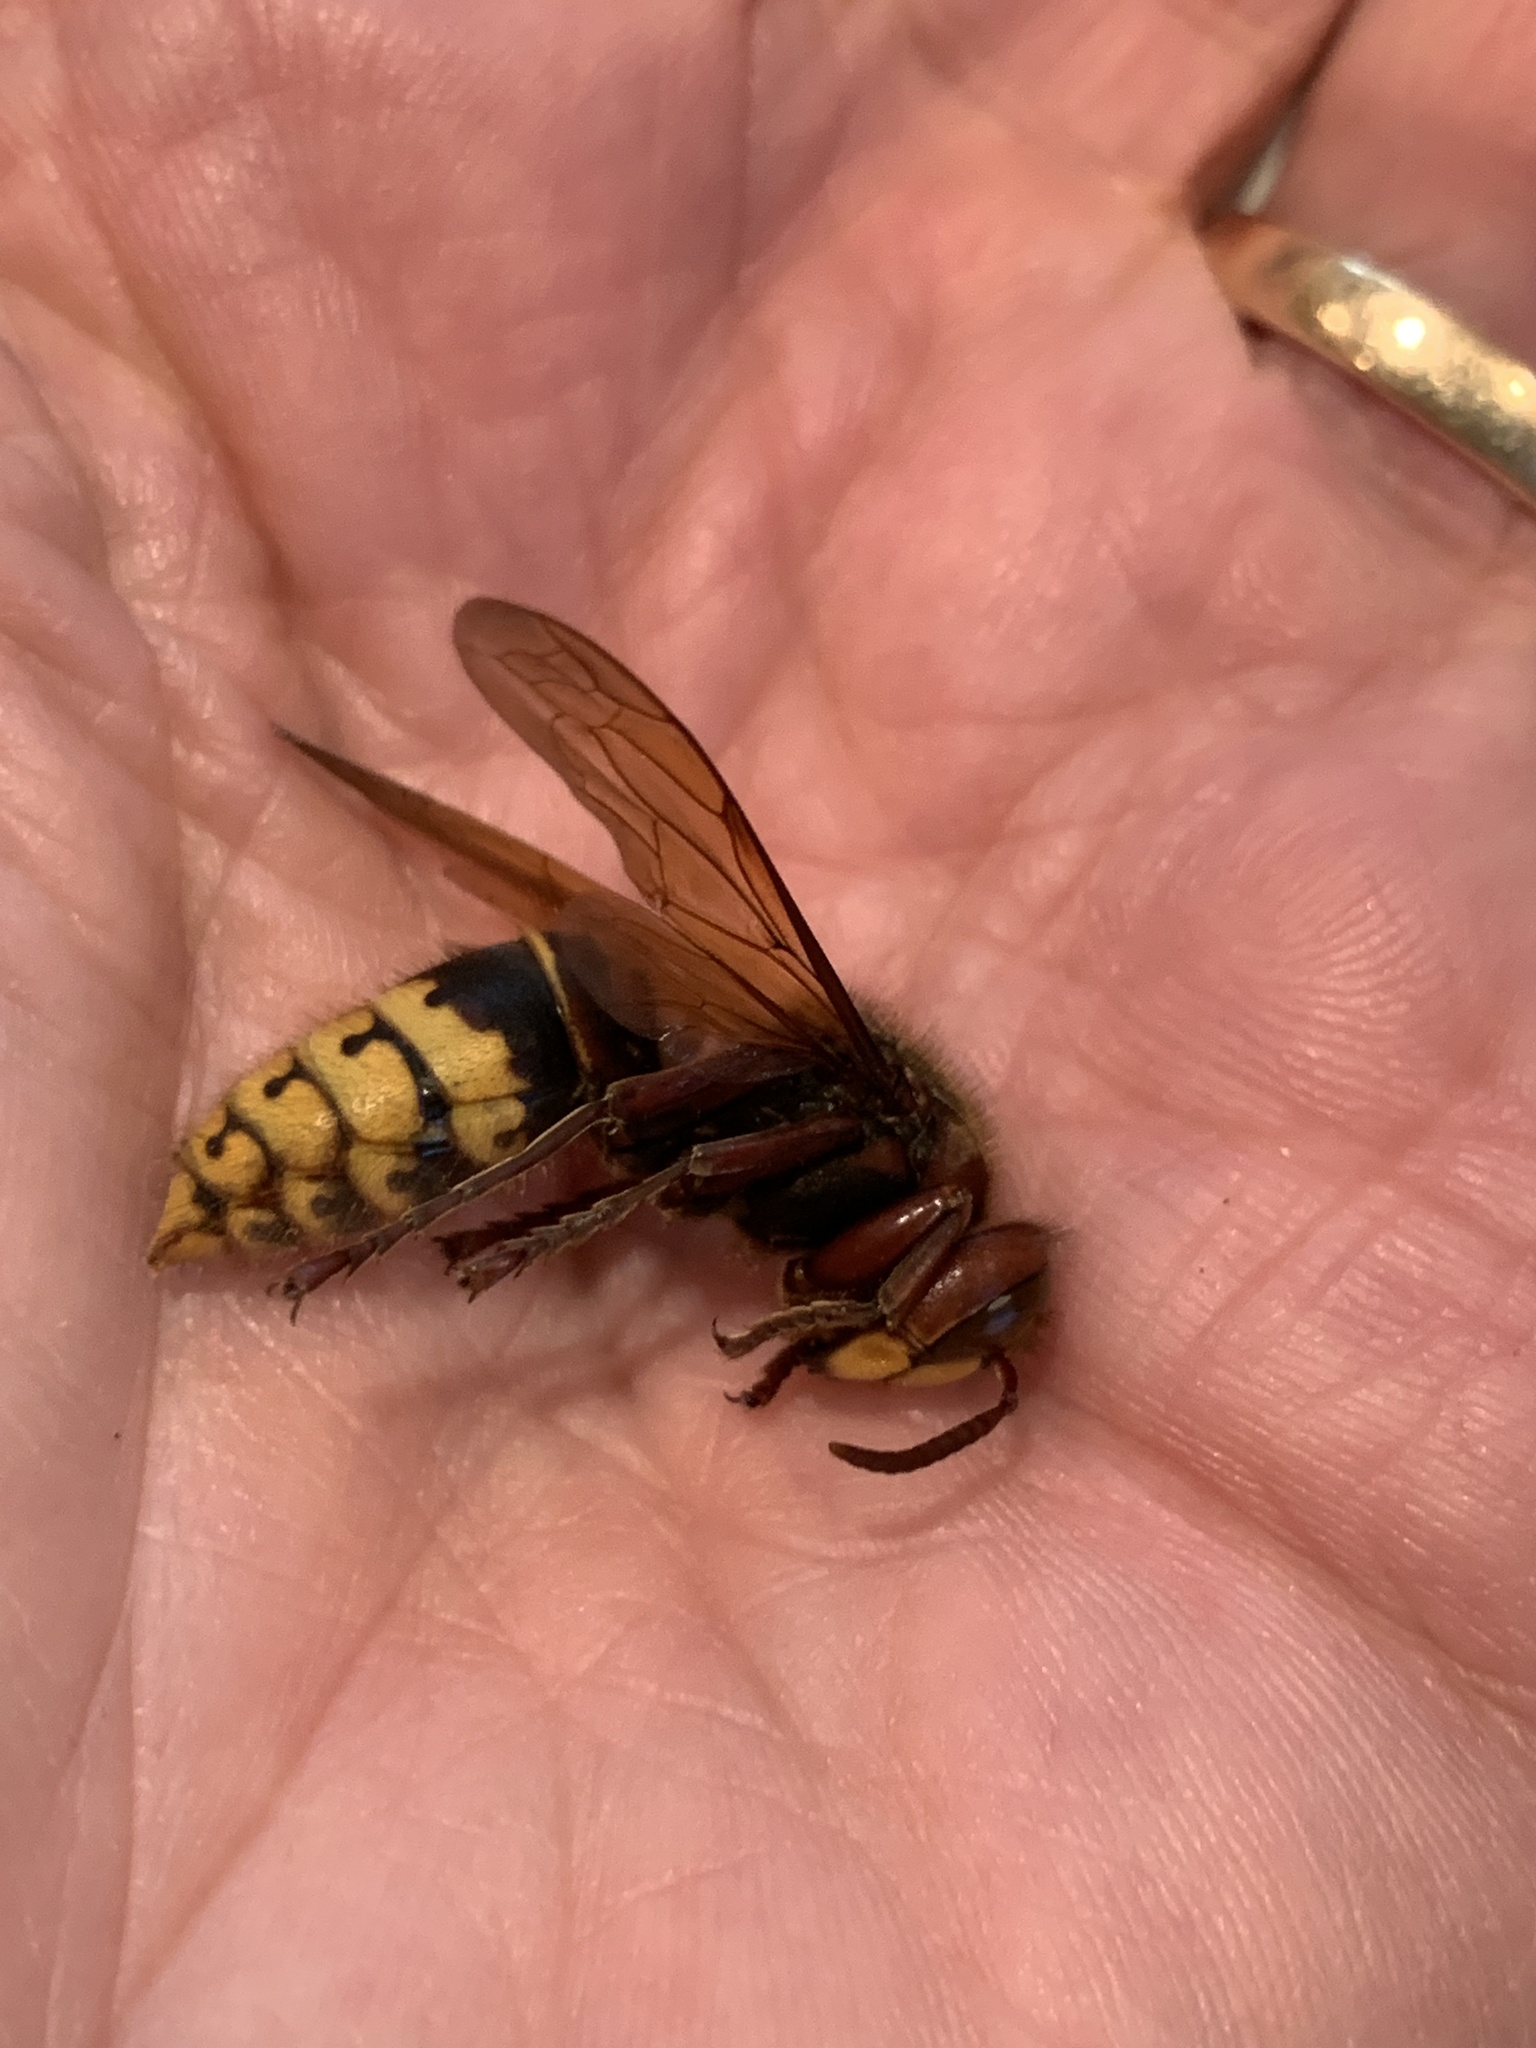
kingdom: Animalia
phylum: Arthropoda
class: Insecta
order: Hymenoptera
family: Vespidae
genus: Vespa
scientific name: Vespa crabro
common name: Hornet
